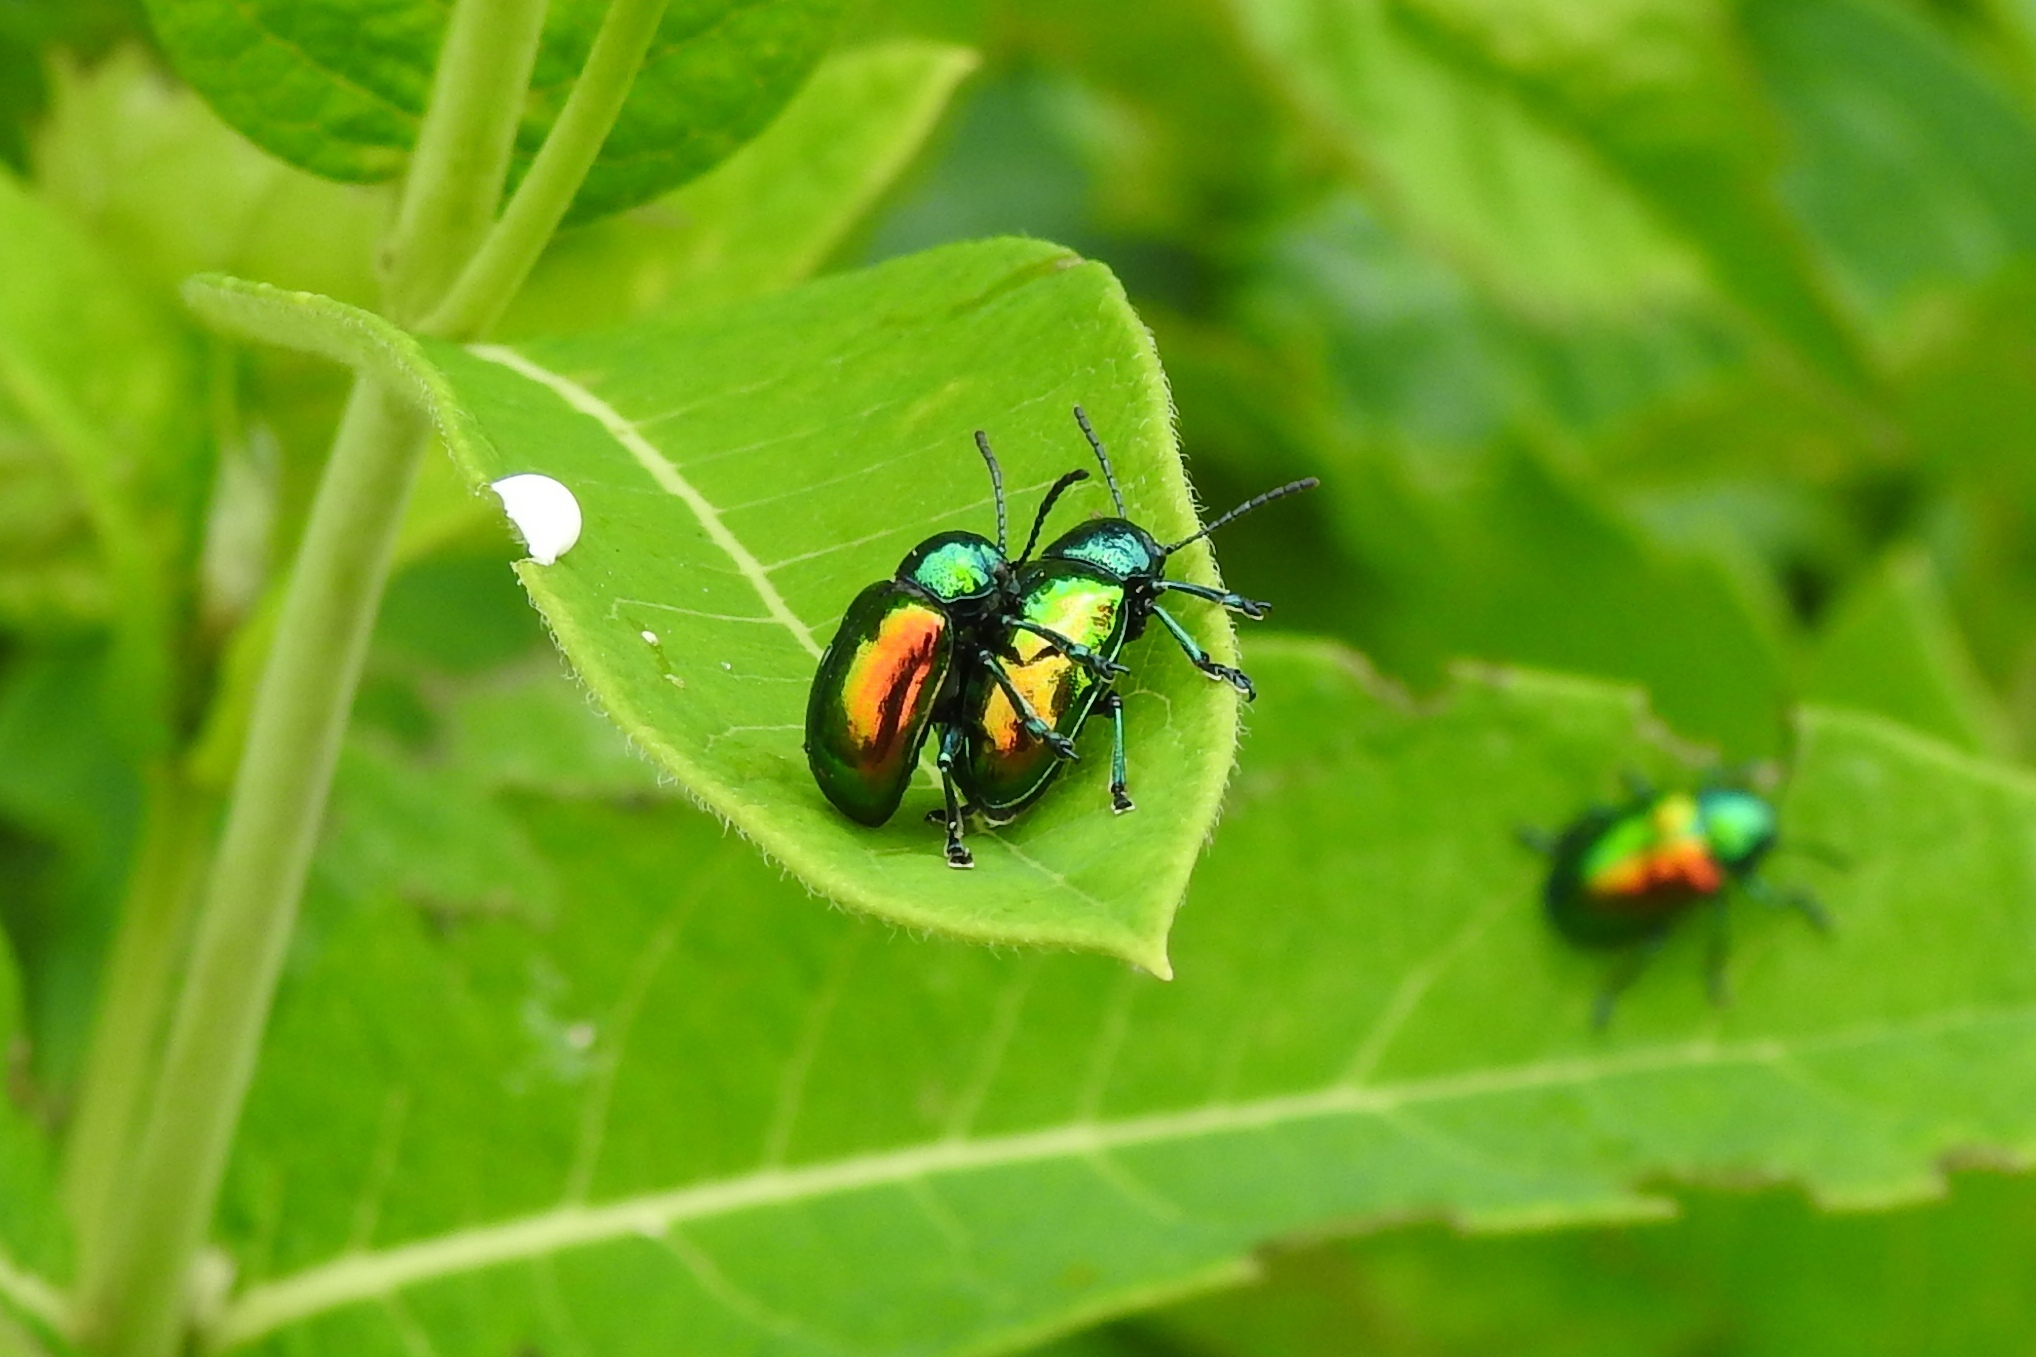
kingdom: Animalia
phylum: Arthropoda
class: Insecta
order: Coleoptera
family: Chrysomelidae
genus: Chrysochus
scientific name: Chrysochus auratus
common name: Dogbane leaf beetle
